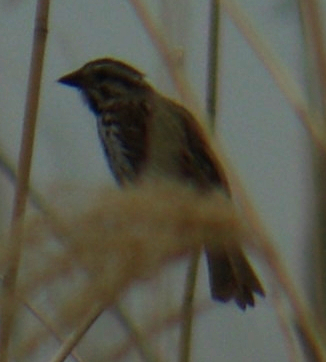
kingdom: Animalia
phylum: Chordata
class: Aves
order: Passeriformes
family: Passerellidae
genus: Melospiza
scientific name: Melospiza melodia
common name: Song sparrow
